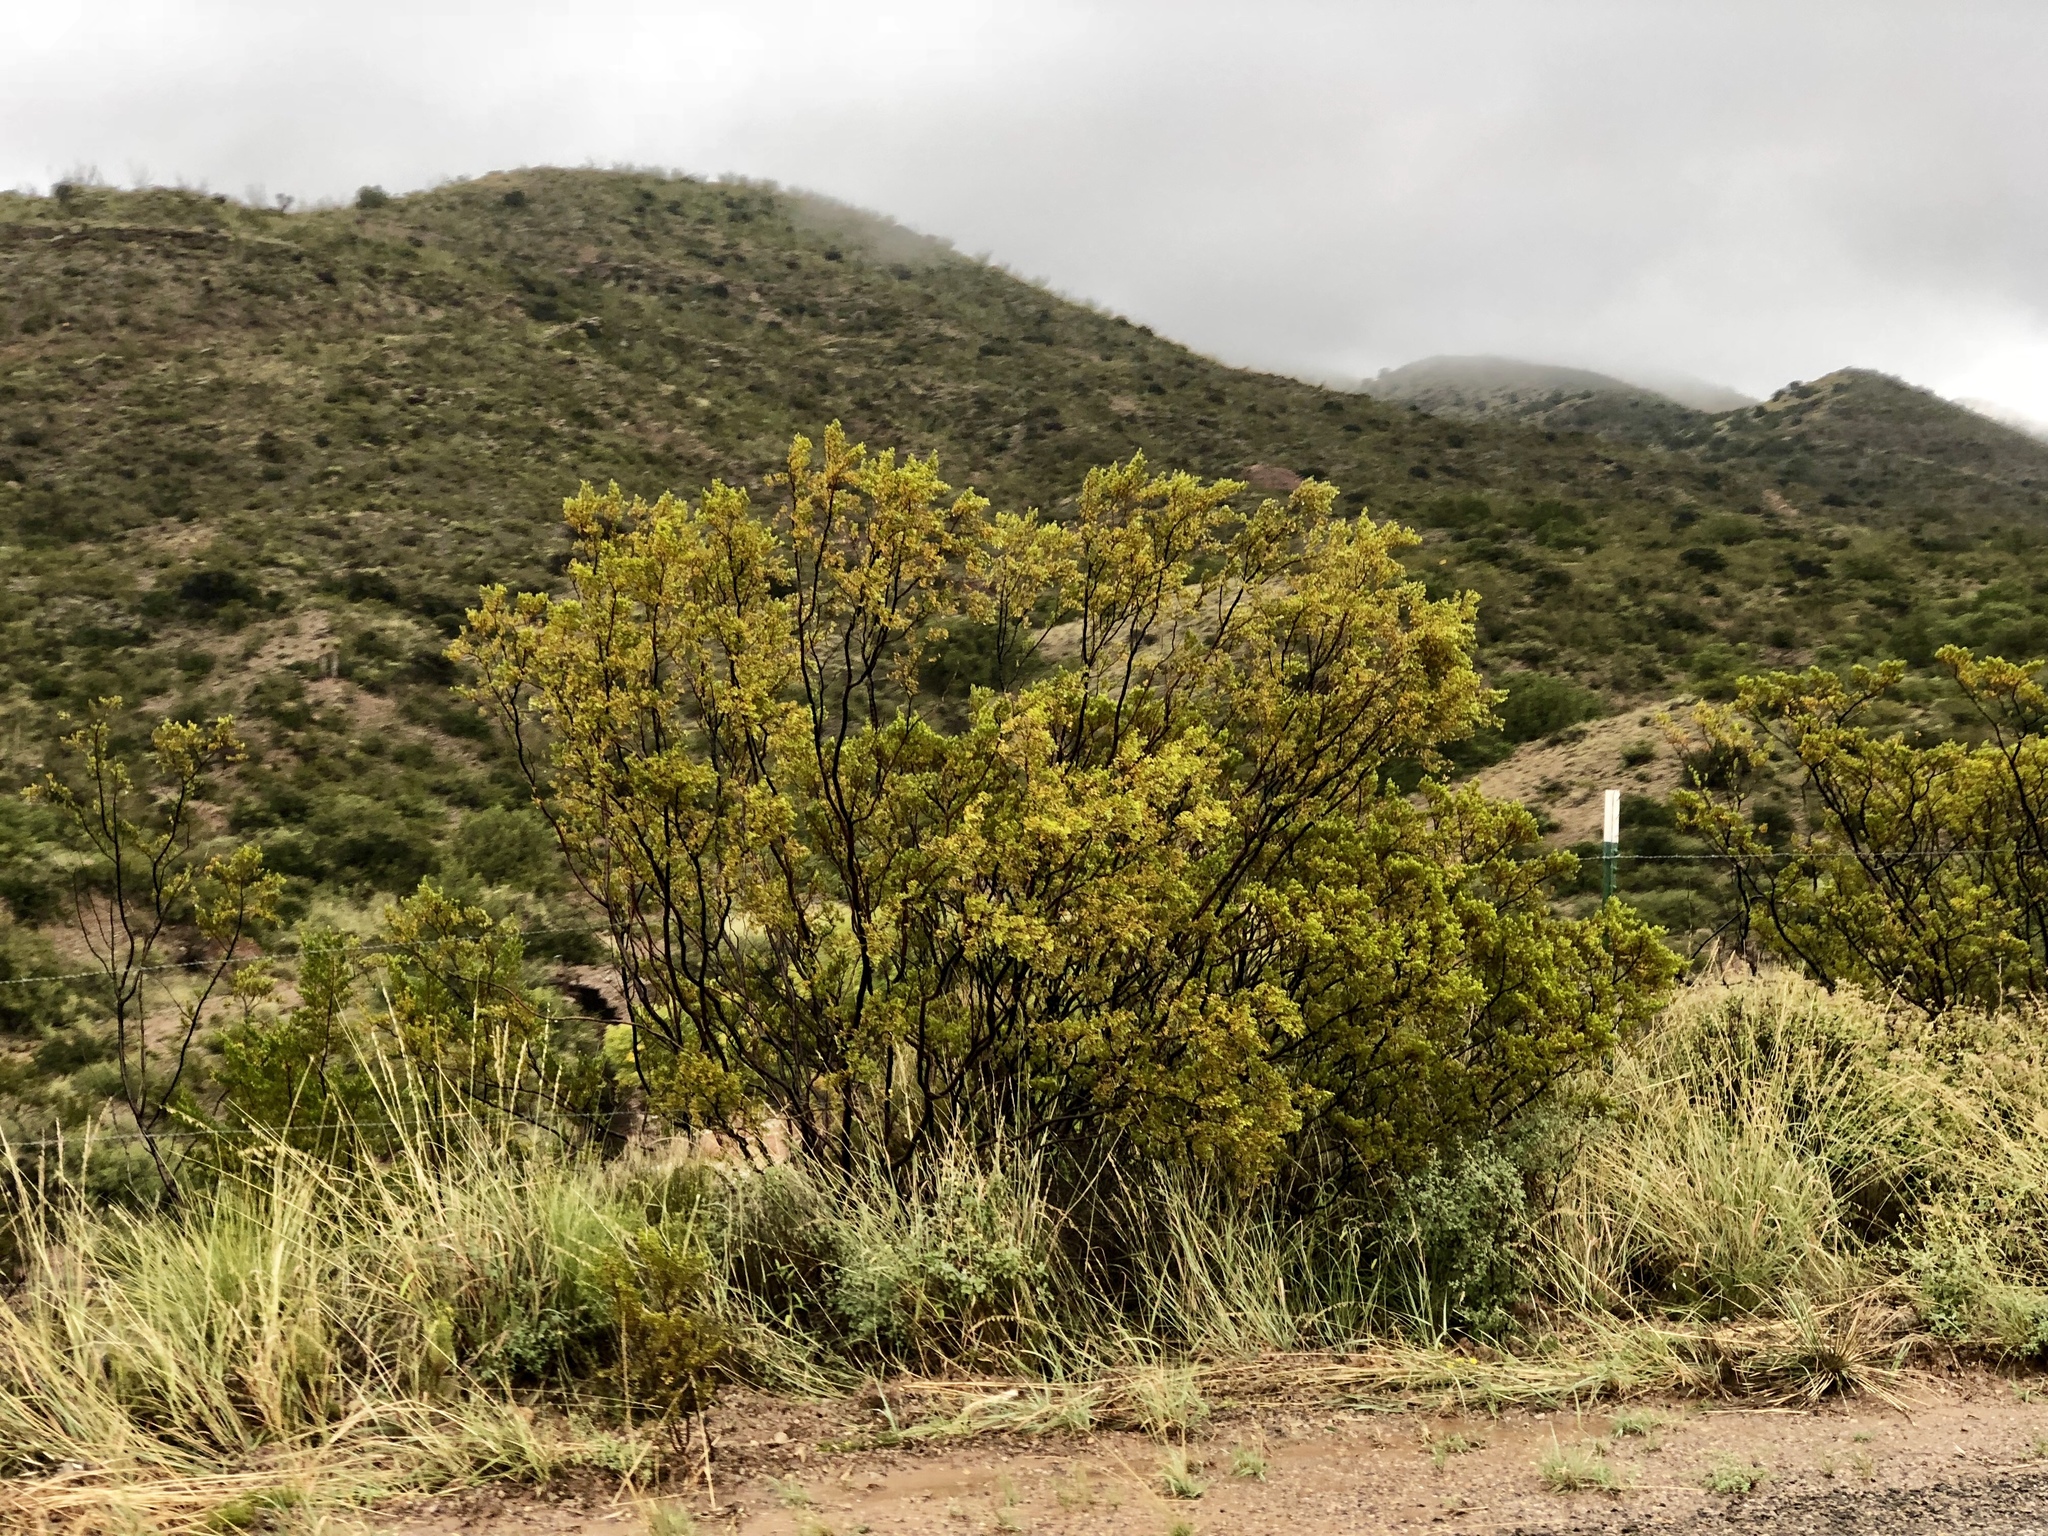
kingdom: Plantae
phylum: Tracheophyta
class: Magnoliopsida
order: Zygophyllales
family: Zygophyllaceae
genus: Larrea
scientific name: Larrea tridentata
